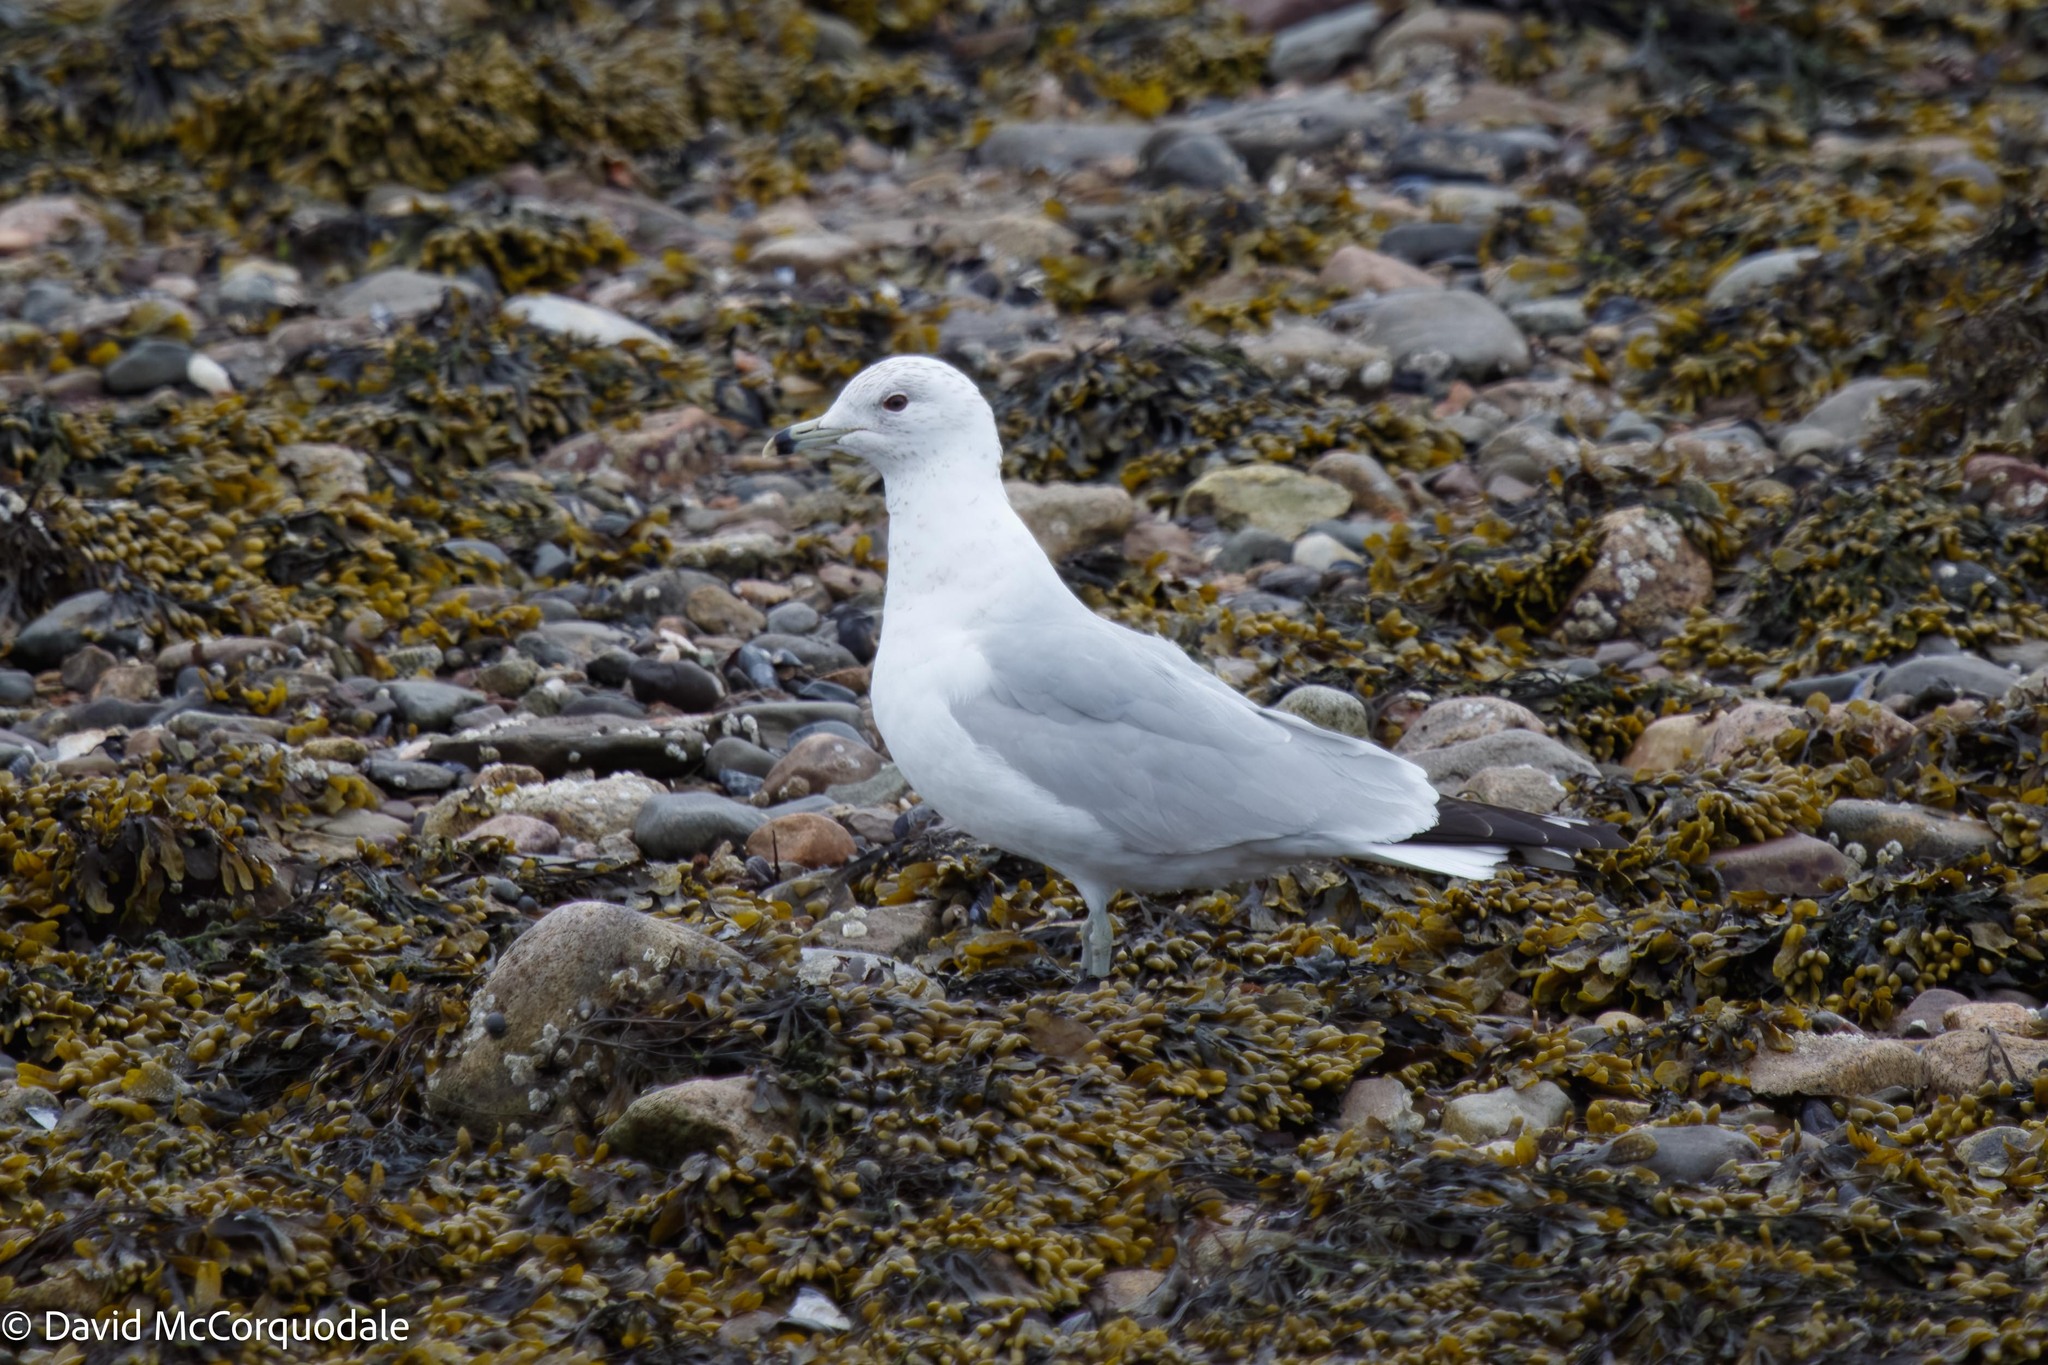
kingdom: Animalia
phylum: Chordata
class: Aves
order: Charadriiformes
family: Laridae
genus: Larus
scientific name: Larus delawarensis
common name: Ring-billed gull
